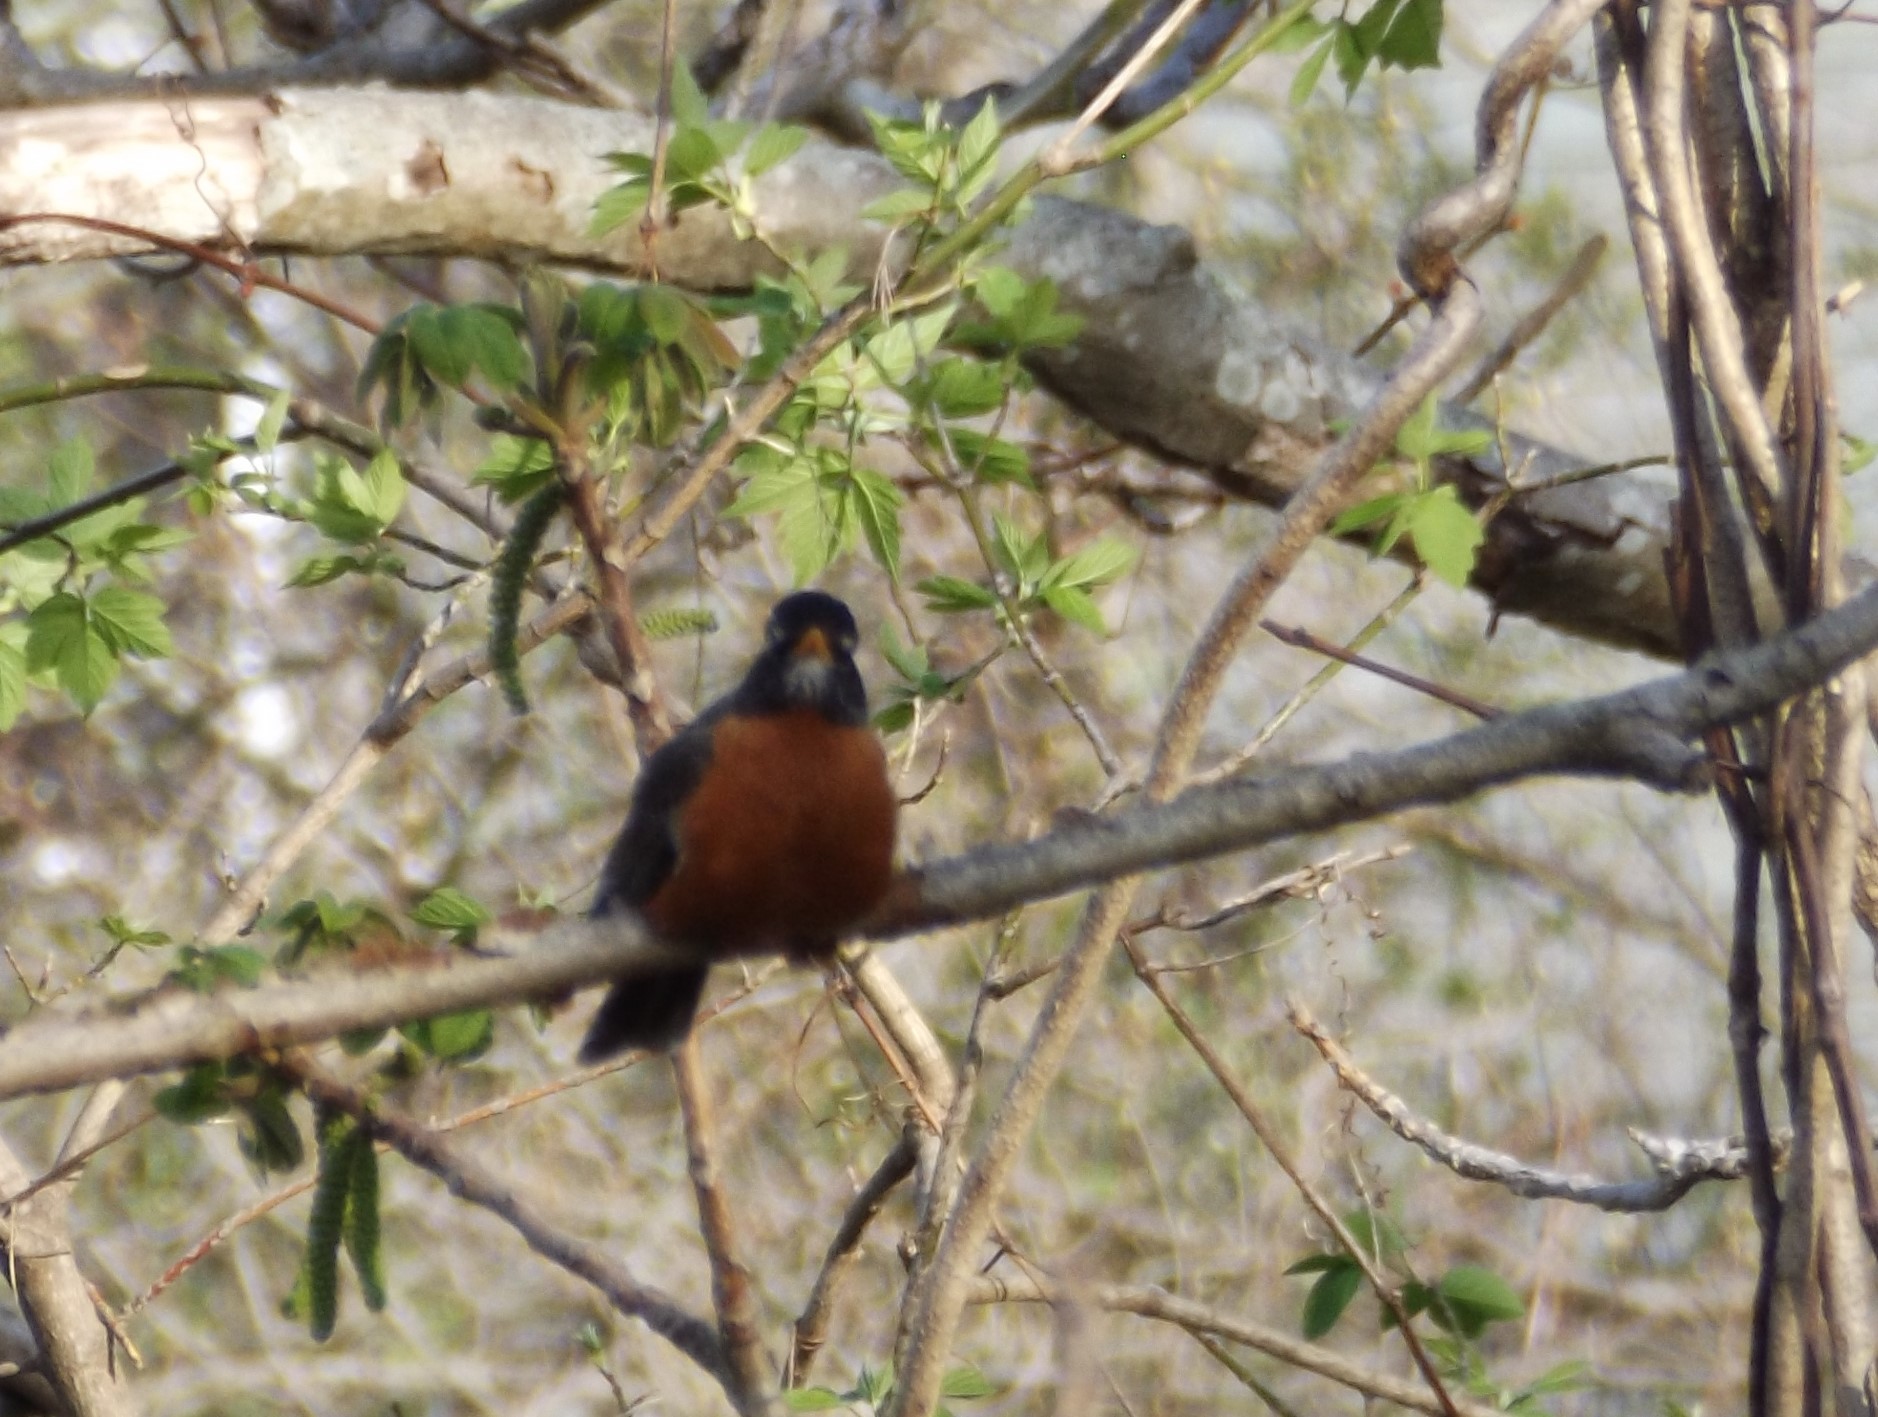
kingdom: Animalia
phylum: Chordata
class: Aves
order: Passeriformes
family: Turdidae
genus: Turdus
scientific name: Turdus migratorius
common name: American robin
